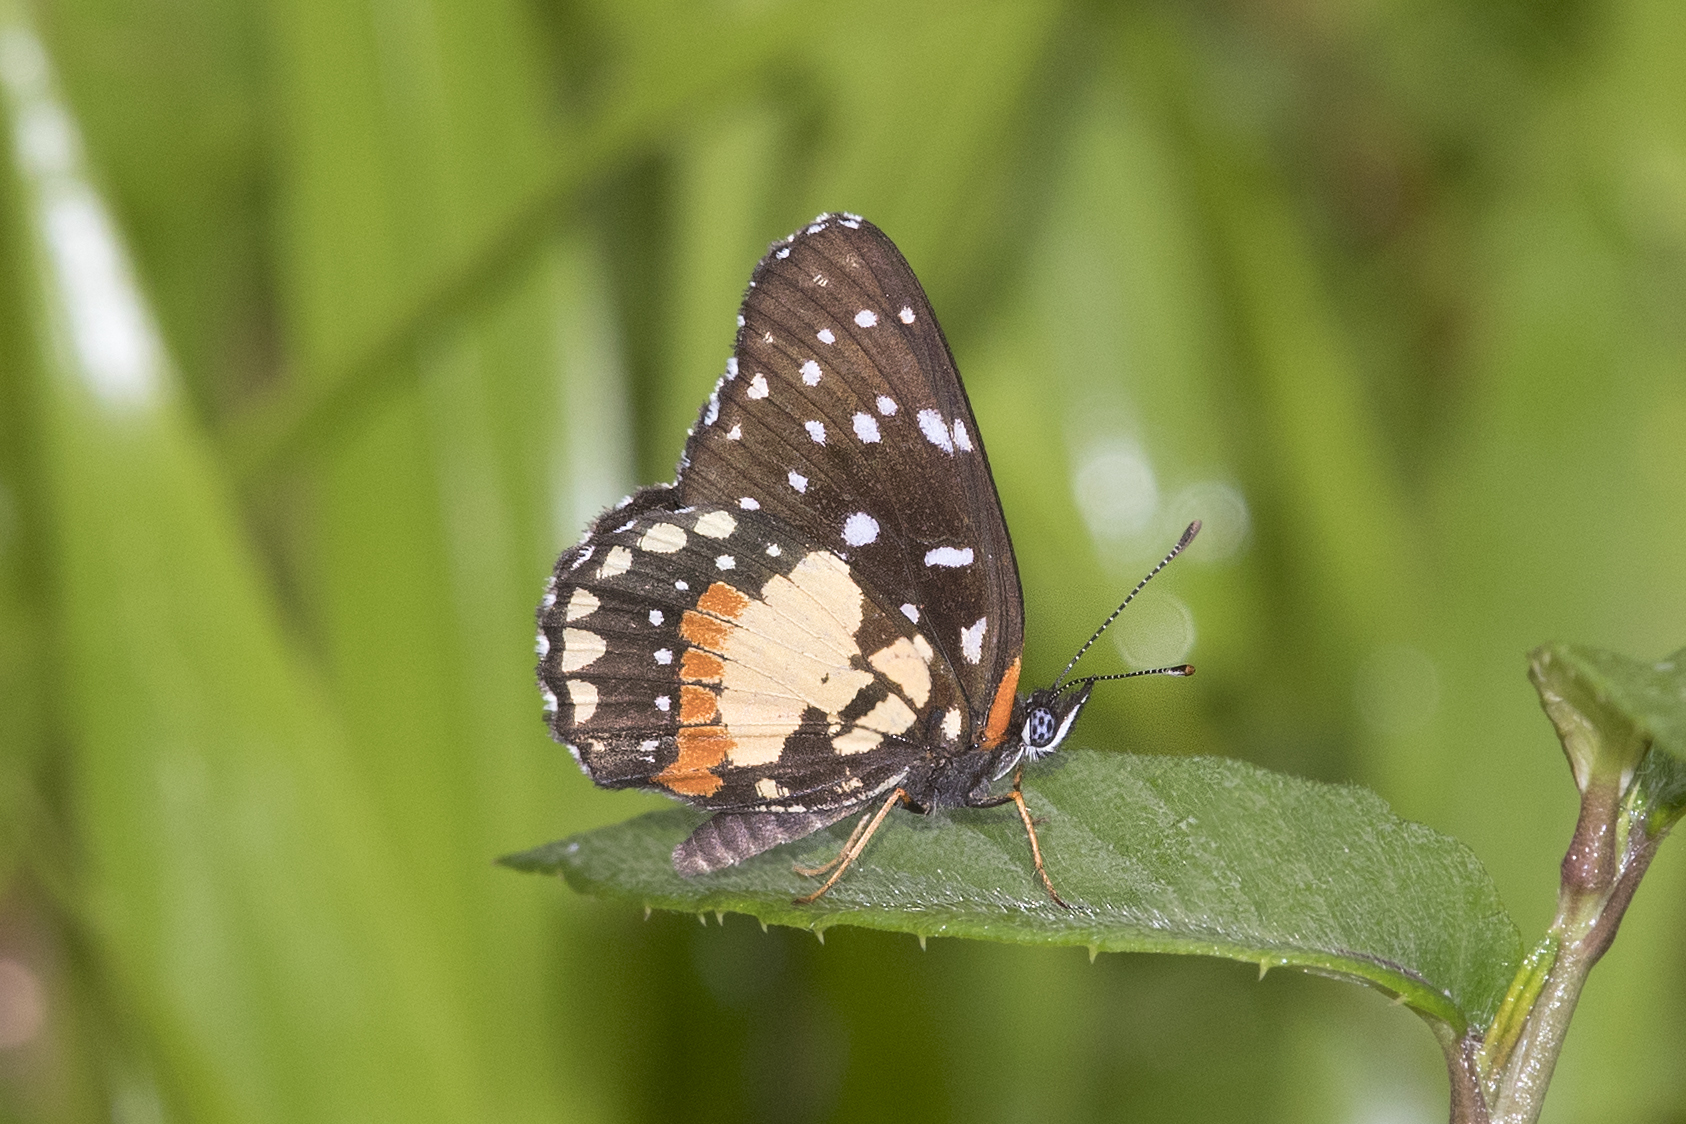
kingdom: Animalia
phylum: Arthropoda
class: Insecta
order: Lepidoptera
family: Nymphalidae
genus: Chlosyne
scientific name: Chlosyne janais
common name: Crimson patch
